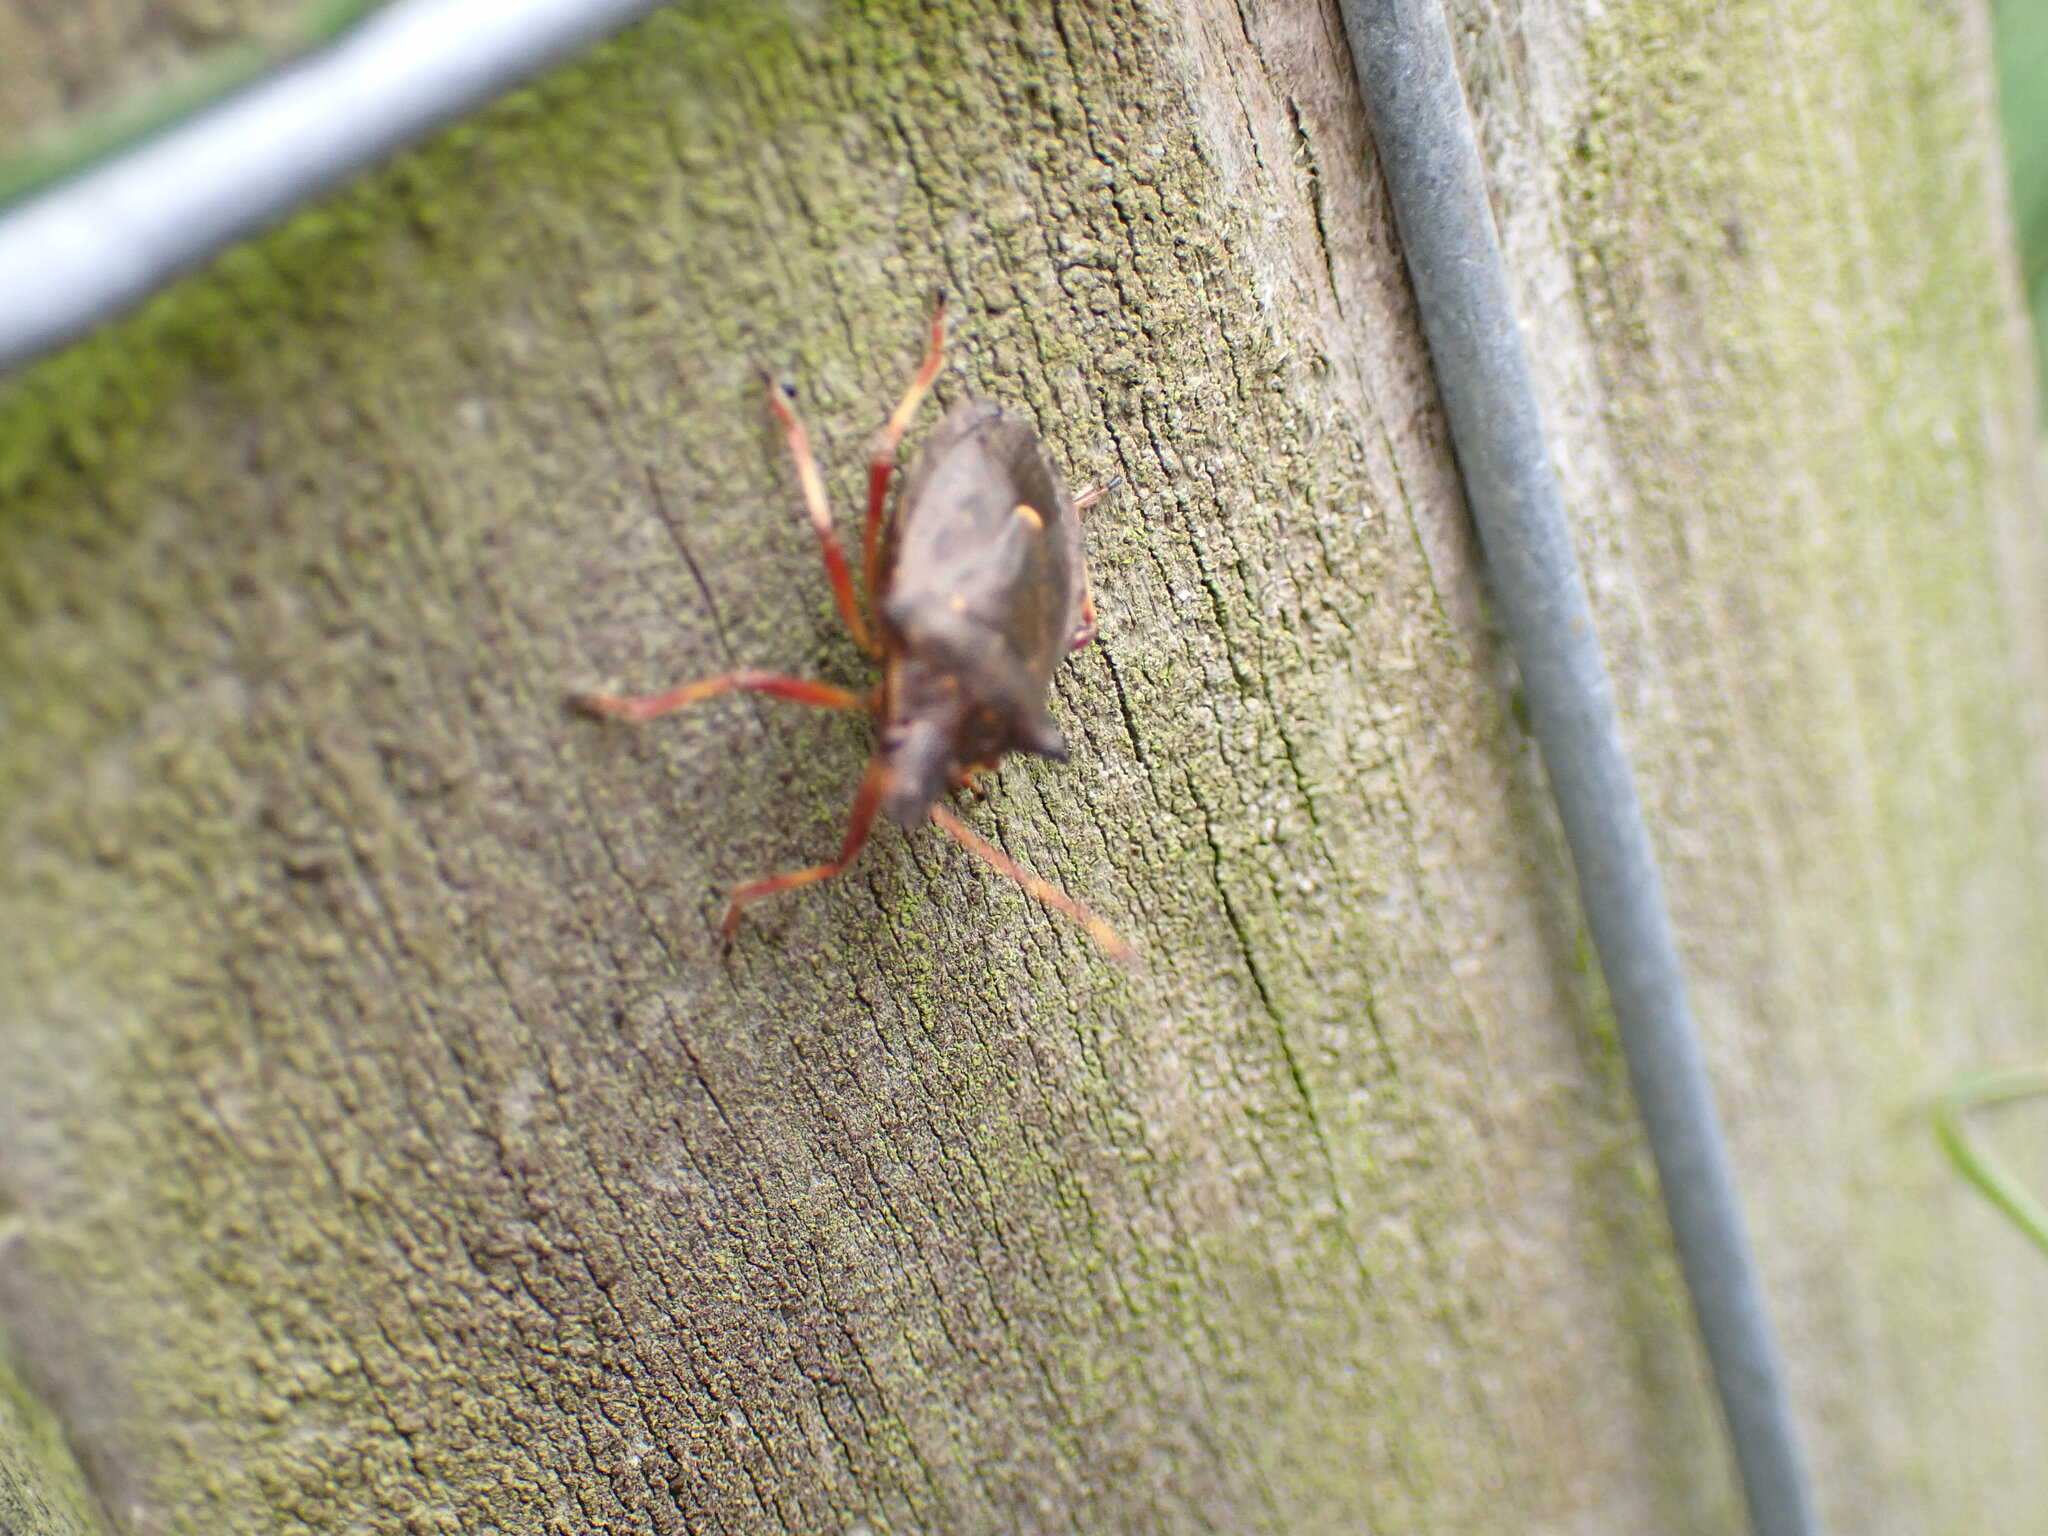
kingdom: Animalia
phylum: Arthropoda
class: Insecta
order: Hemiptera
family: Pentatomidae
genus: Picromerus
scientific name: Picromerus bidens
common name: Spiked shieldbug
